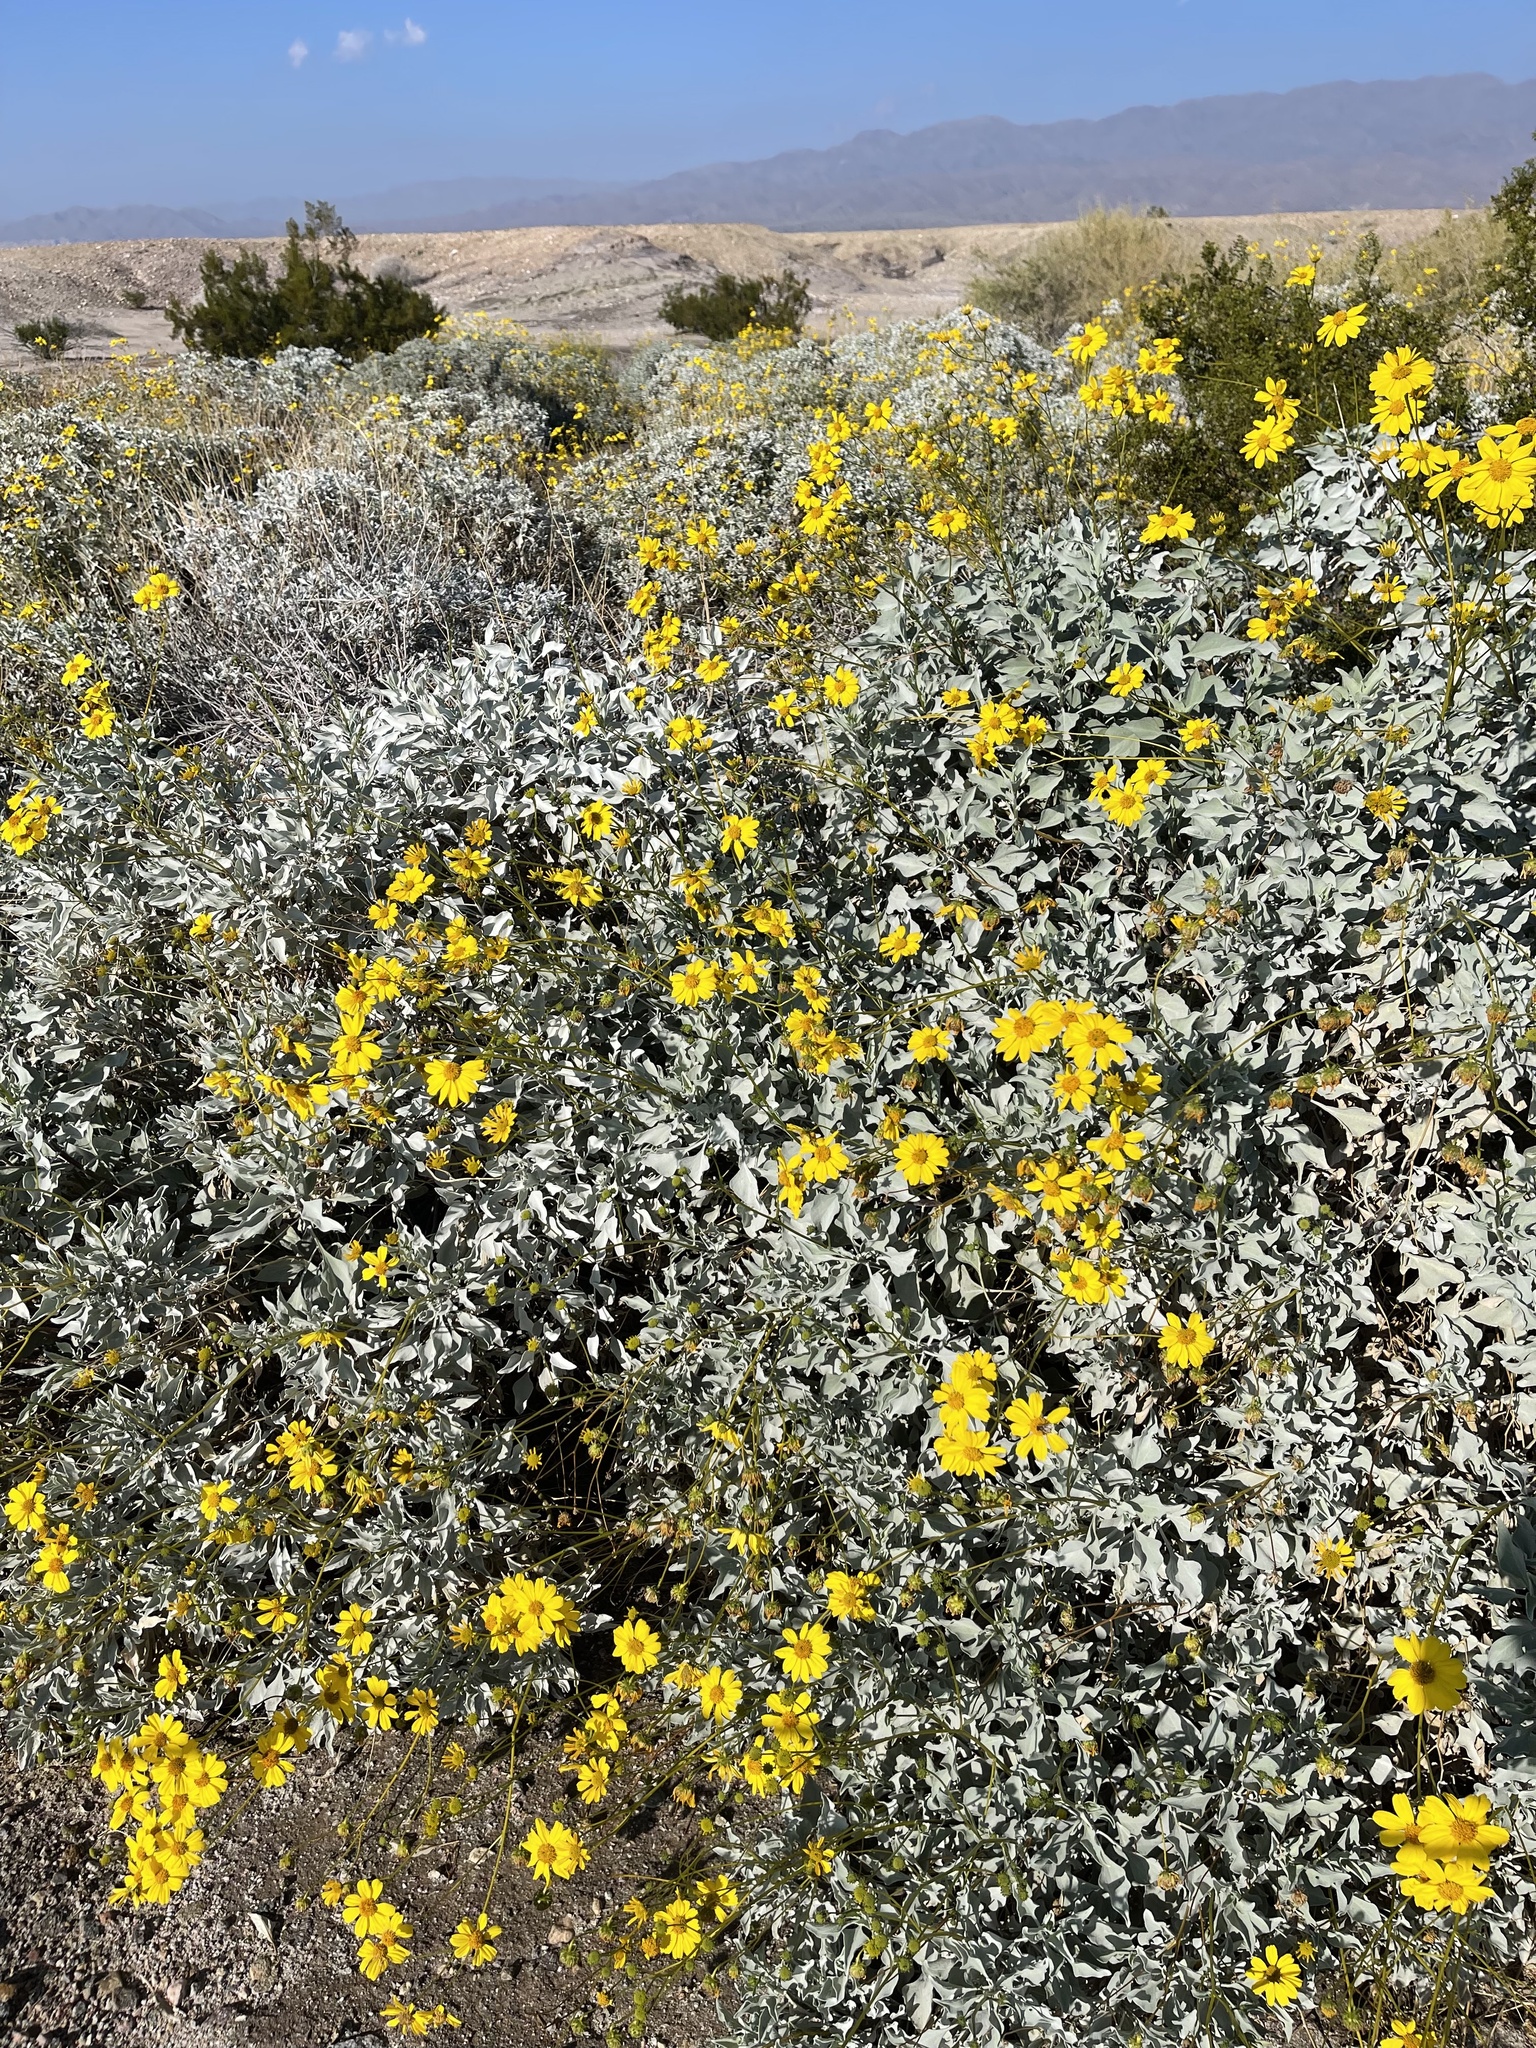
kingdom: Plantae
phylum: Tracheophyta
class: Magnoliopsida
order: Asterales
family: Asteraceae
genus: Encelia
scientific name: Encelia farinosa
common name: Brittlebush
